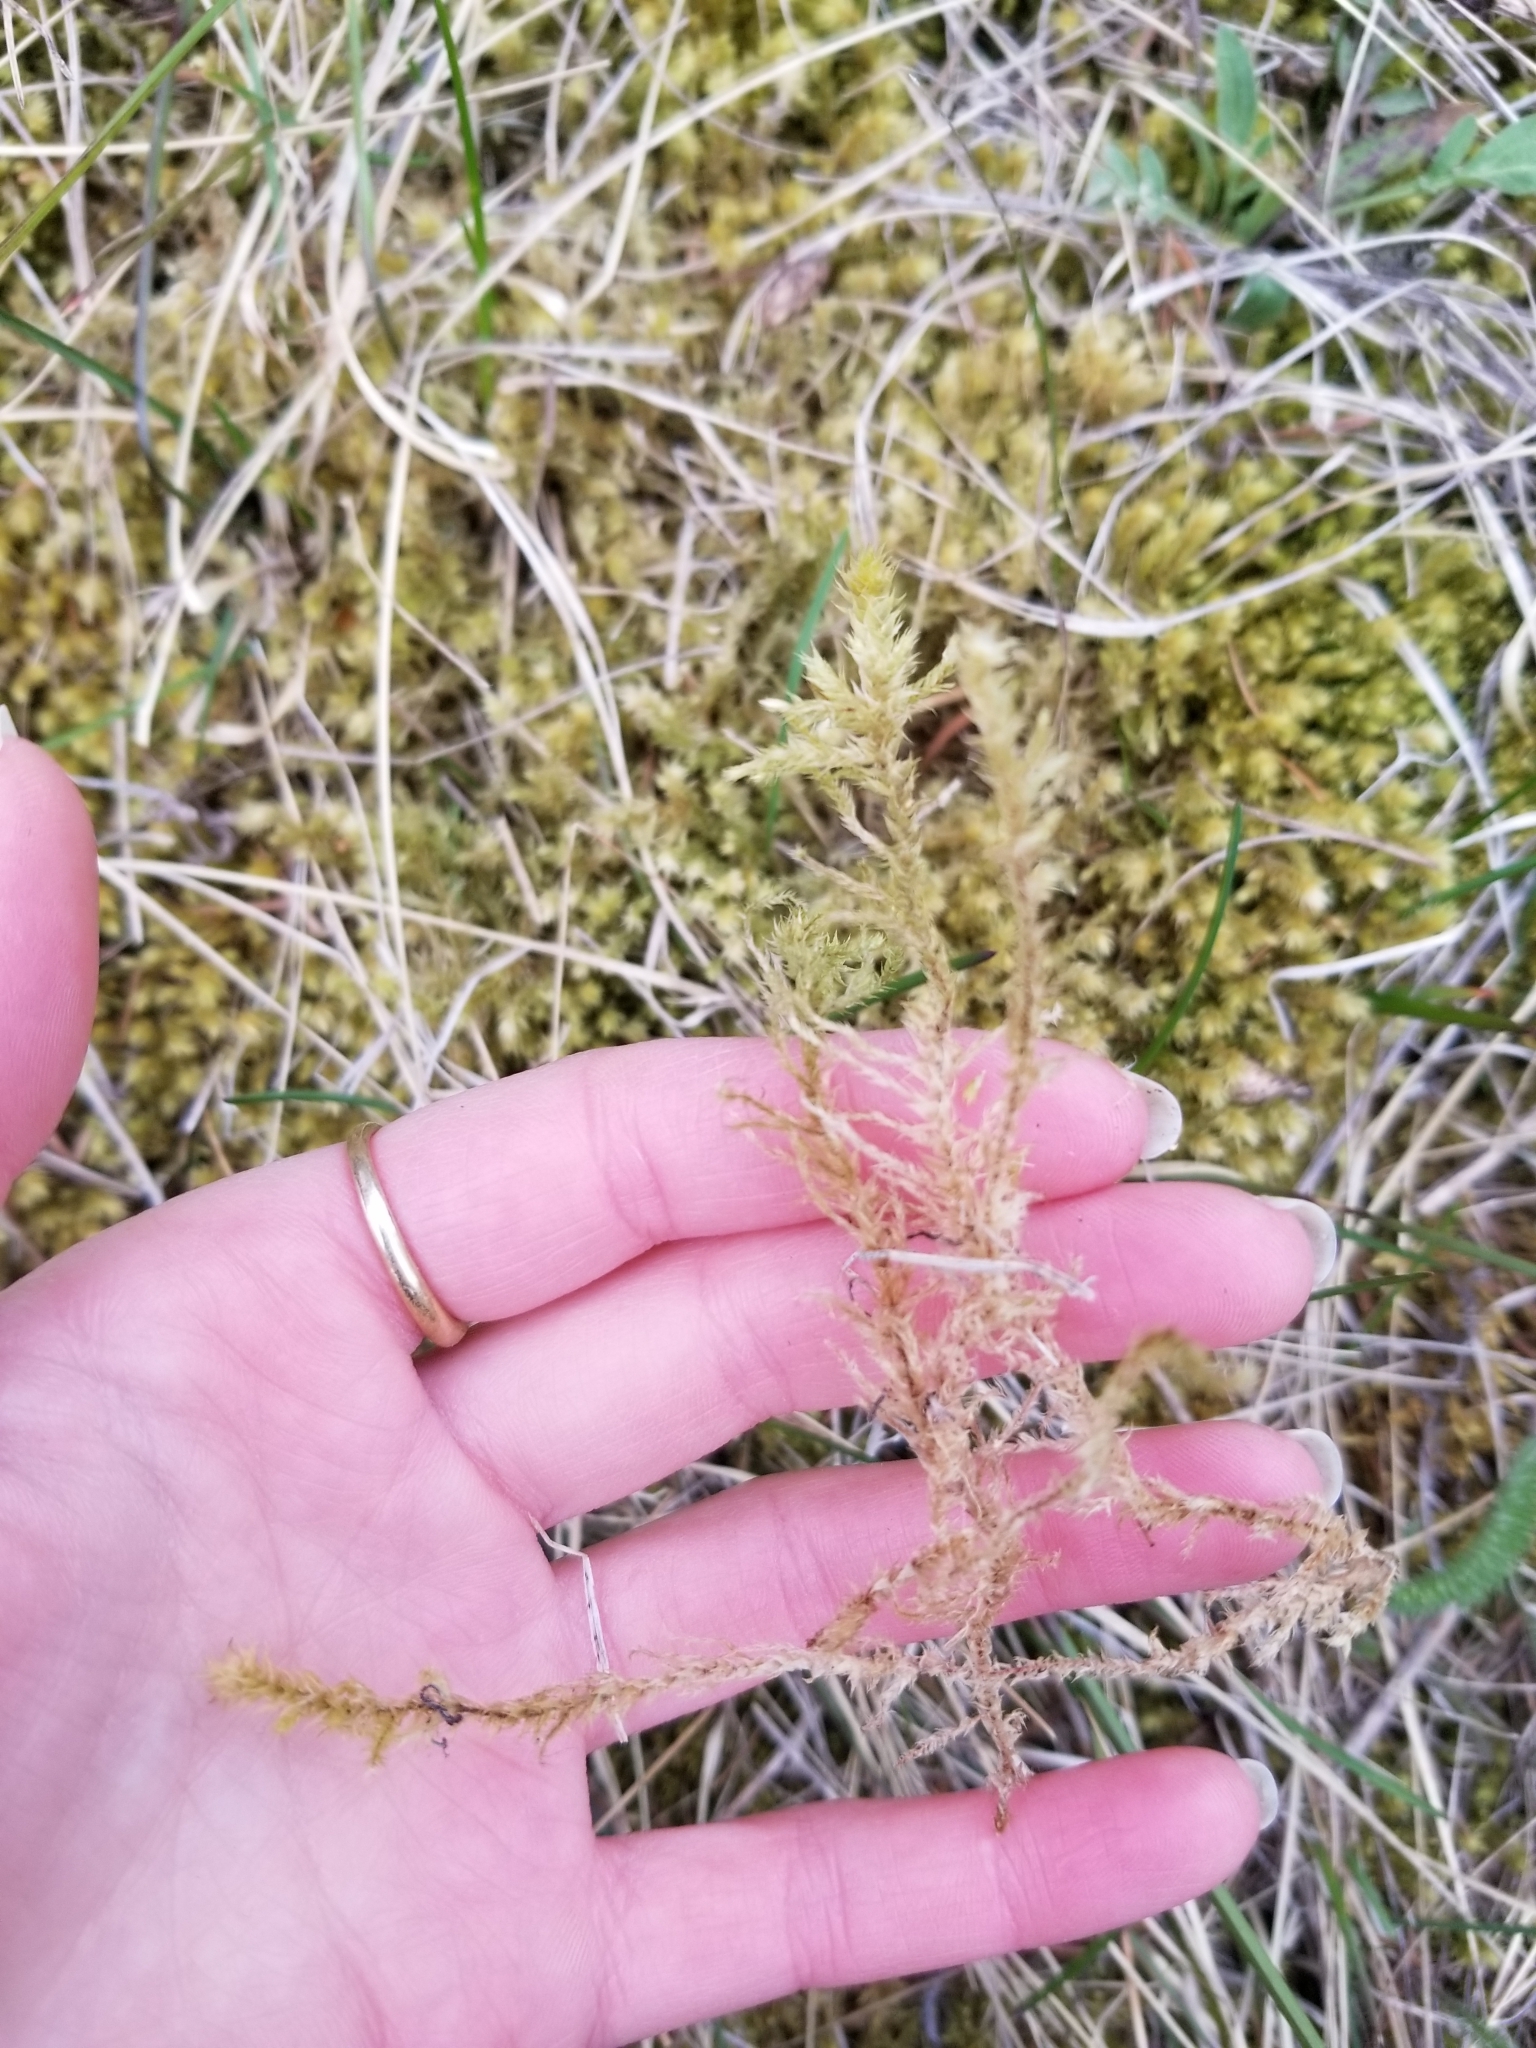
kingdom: Plantae
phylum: Bryophyta
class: Bryopsida
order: Hypnales
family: Hylocomiaceae
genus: Hylocomiadelphus
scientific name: Hylocomiadelphus triquetrus
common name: Rough goose neck moss
